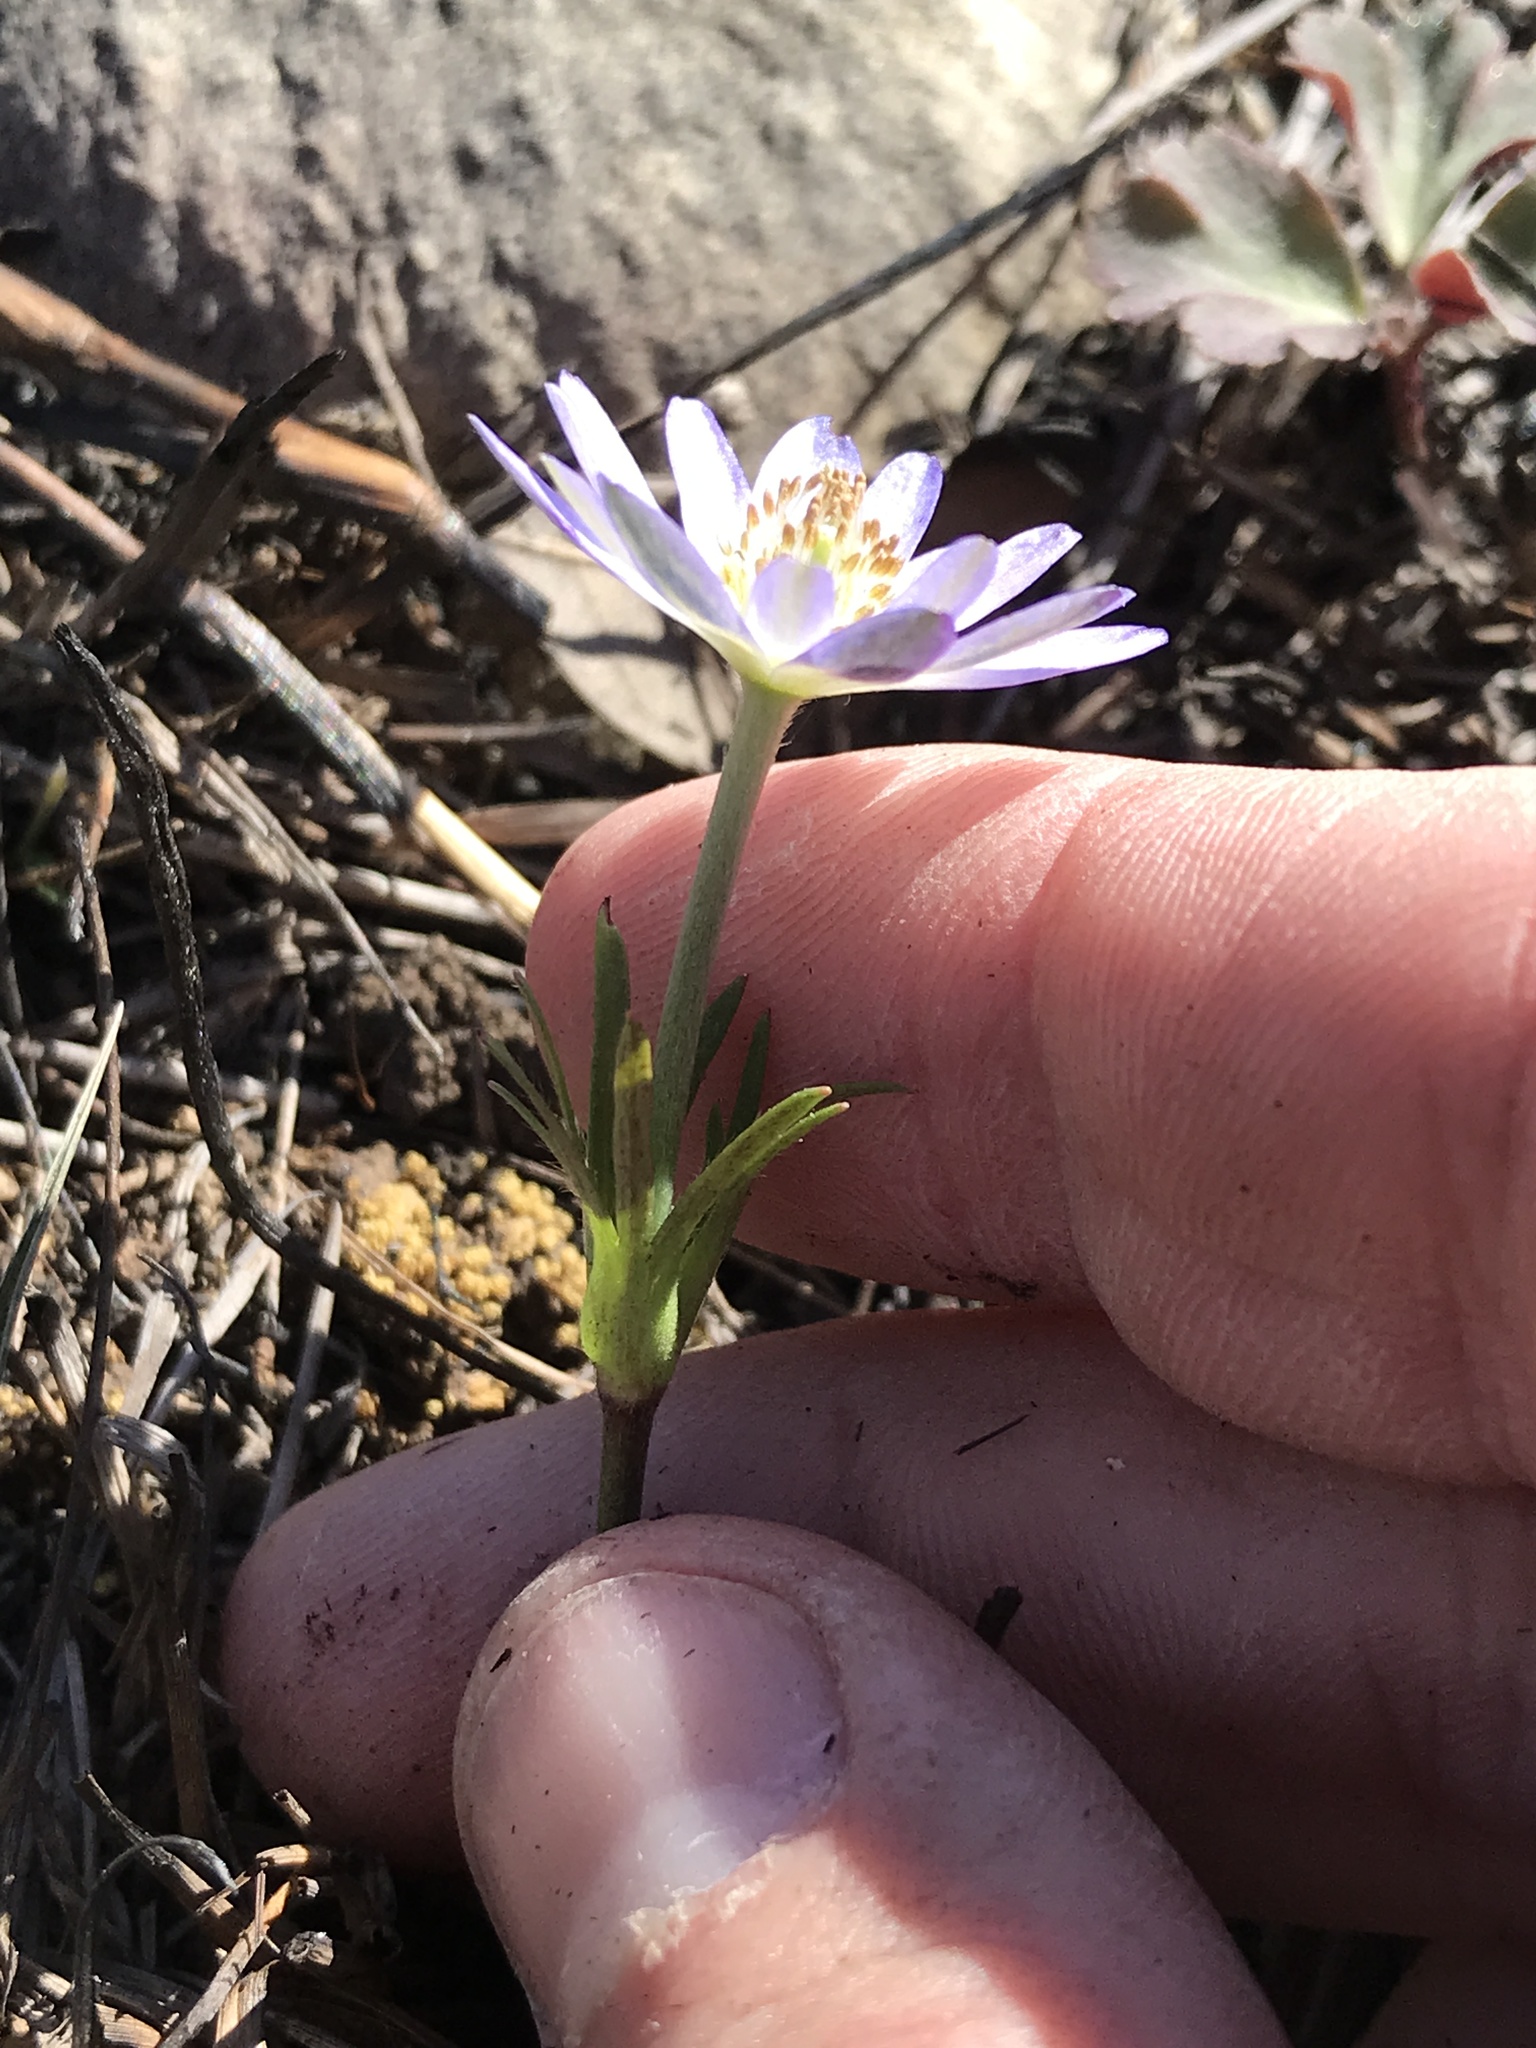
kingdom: Plantae
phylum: Tracheophyta
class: Magnoliopsida
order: Ranunculales
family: Ranunculaceae
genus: Anemone
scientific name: Anemone berlandieri
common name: Ten-petal anemone
